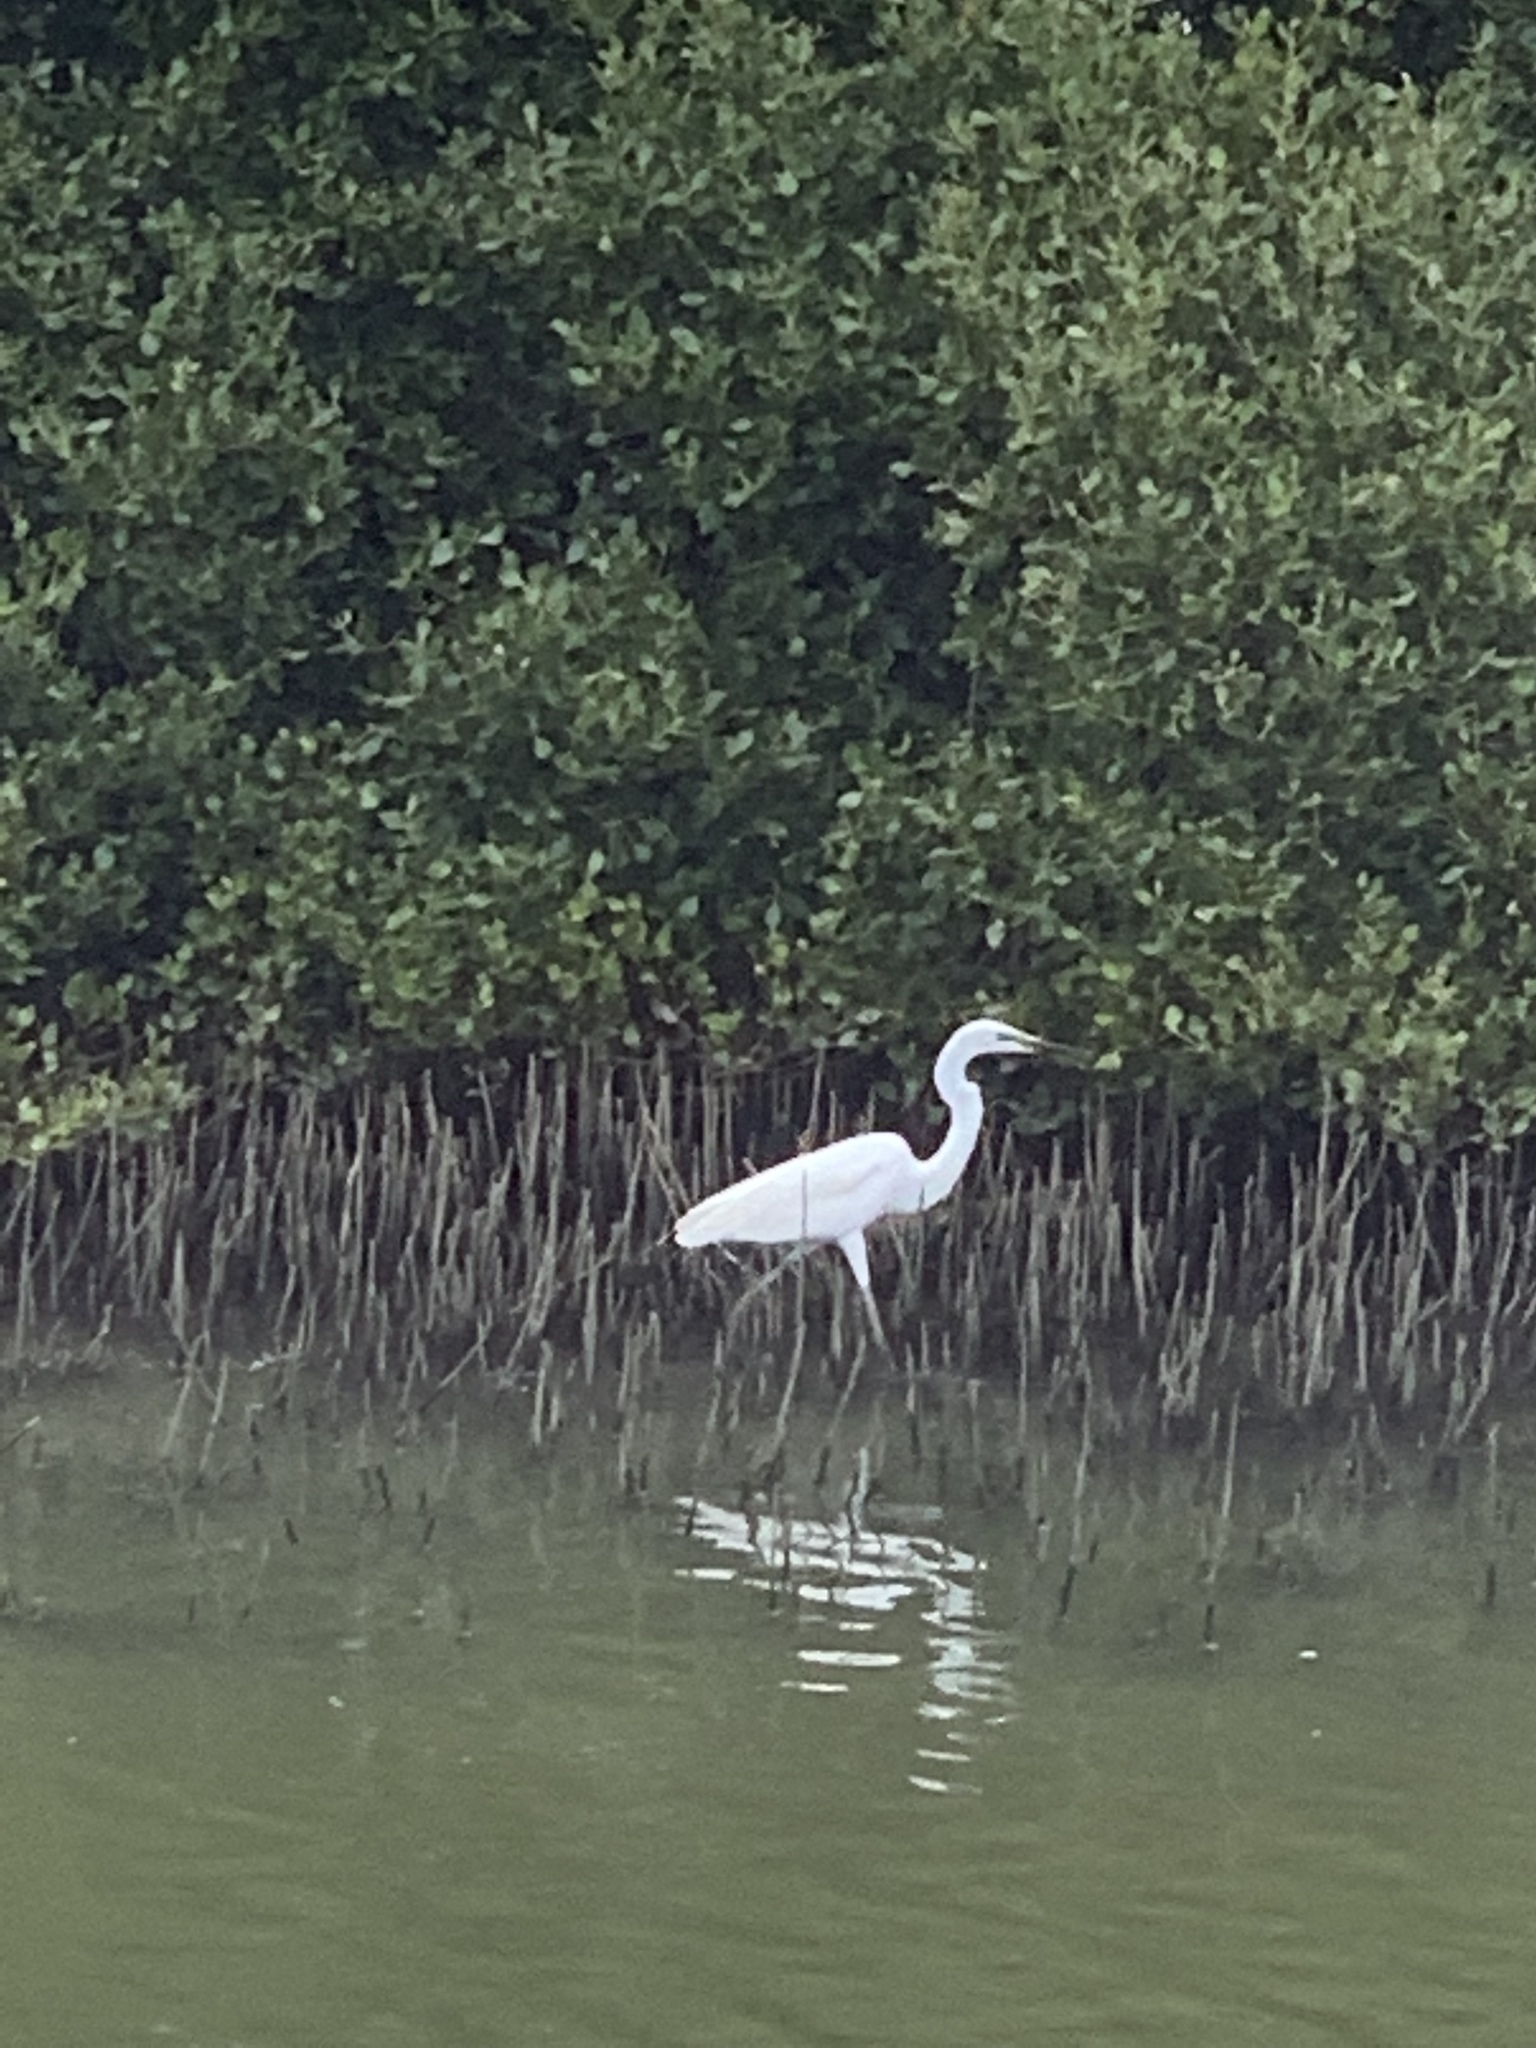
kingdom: Animalia
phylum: Chordata
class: Aves
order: Pelecaniformes
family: Ardeidae
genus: Ardea
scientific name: Ardea alba
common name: Great egret
